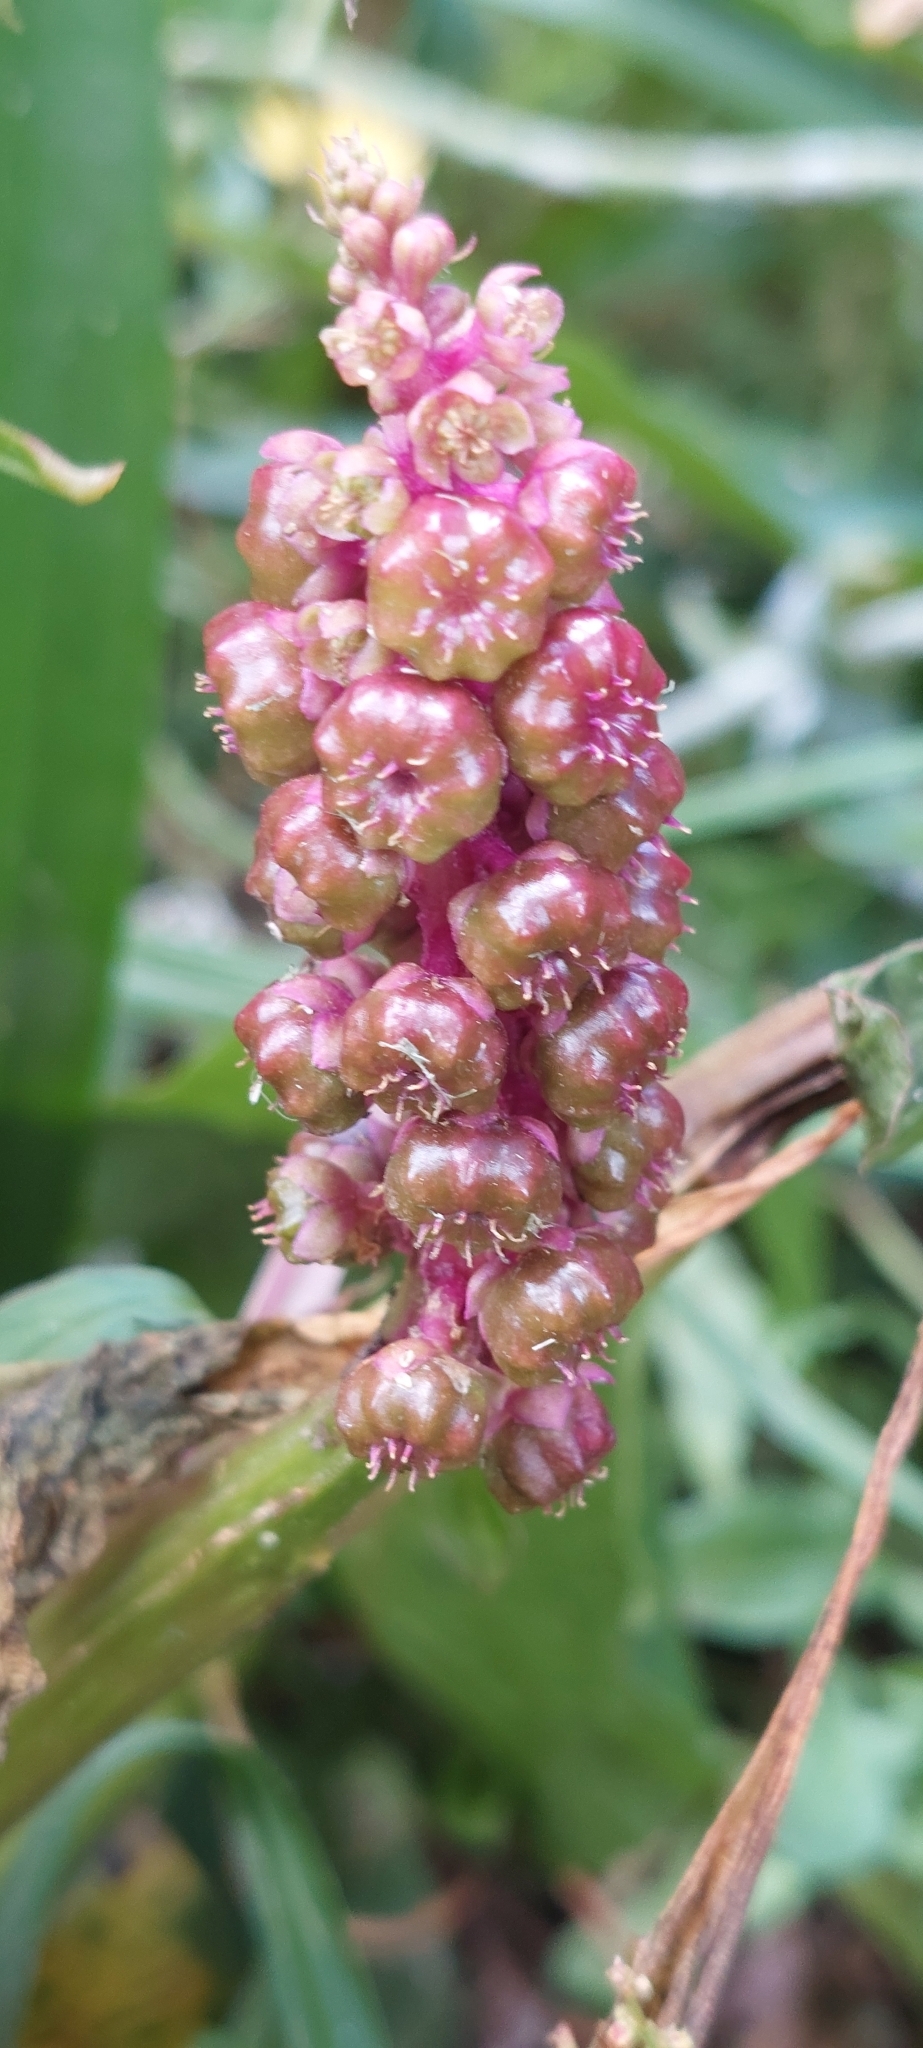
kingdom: Plantae
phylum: Tracheophyta
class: Magnoliopsida
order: Caryophyllales
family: Phytolaccaceae
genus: Phytolacca
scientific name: Phytolacca bogotensis
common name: Southern pokeweed
